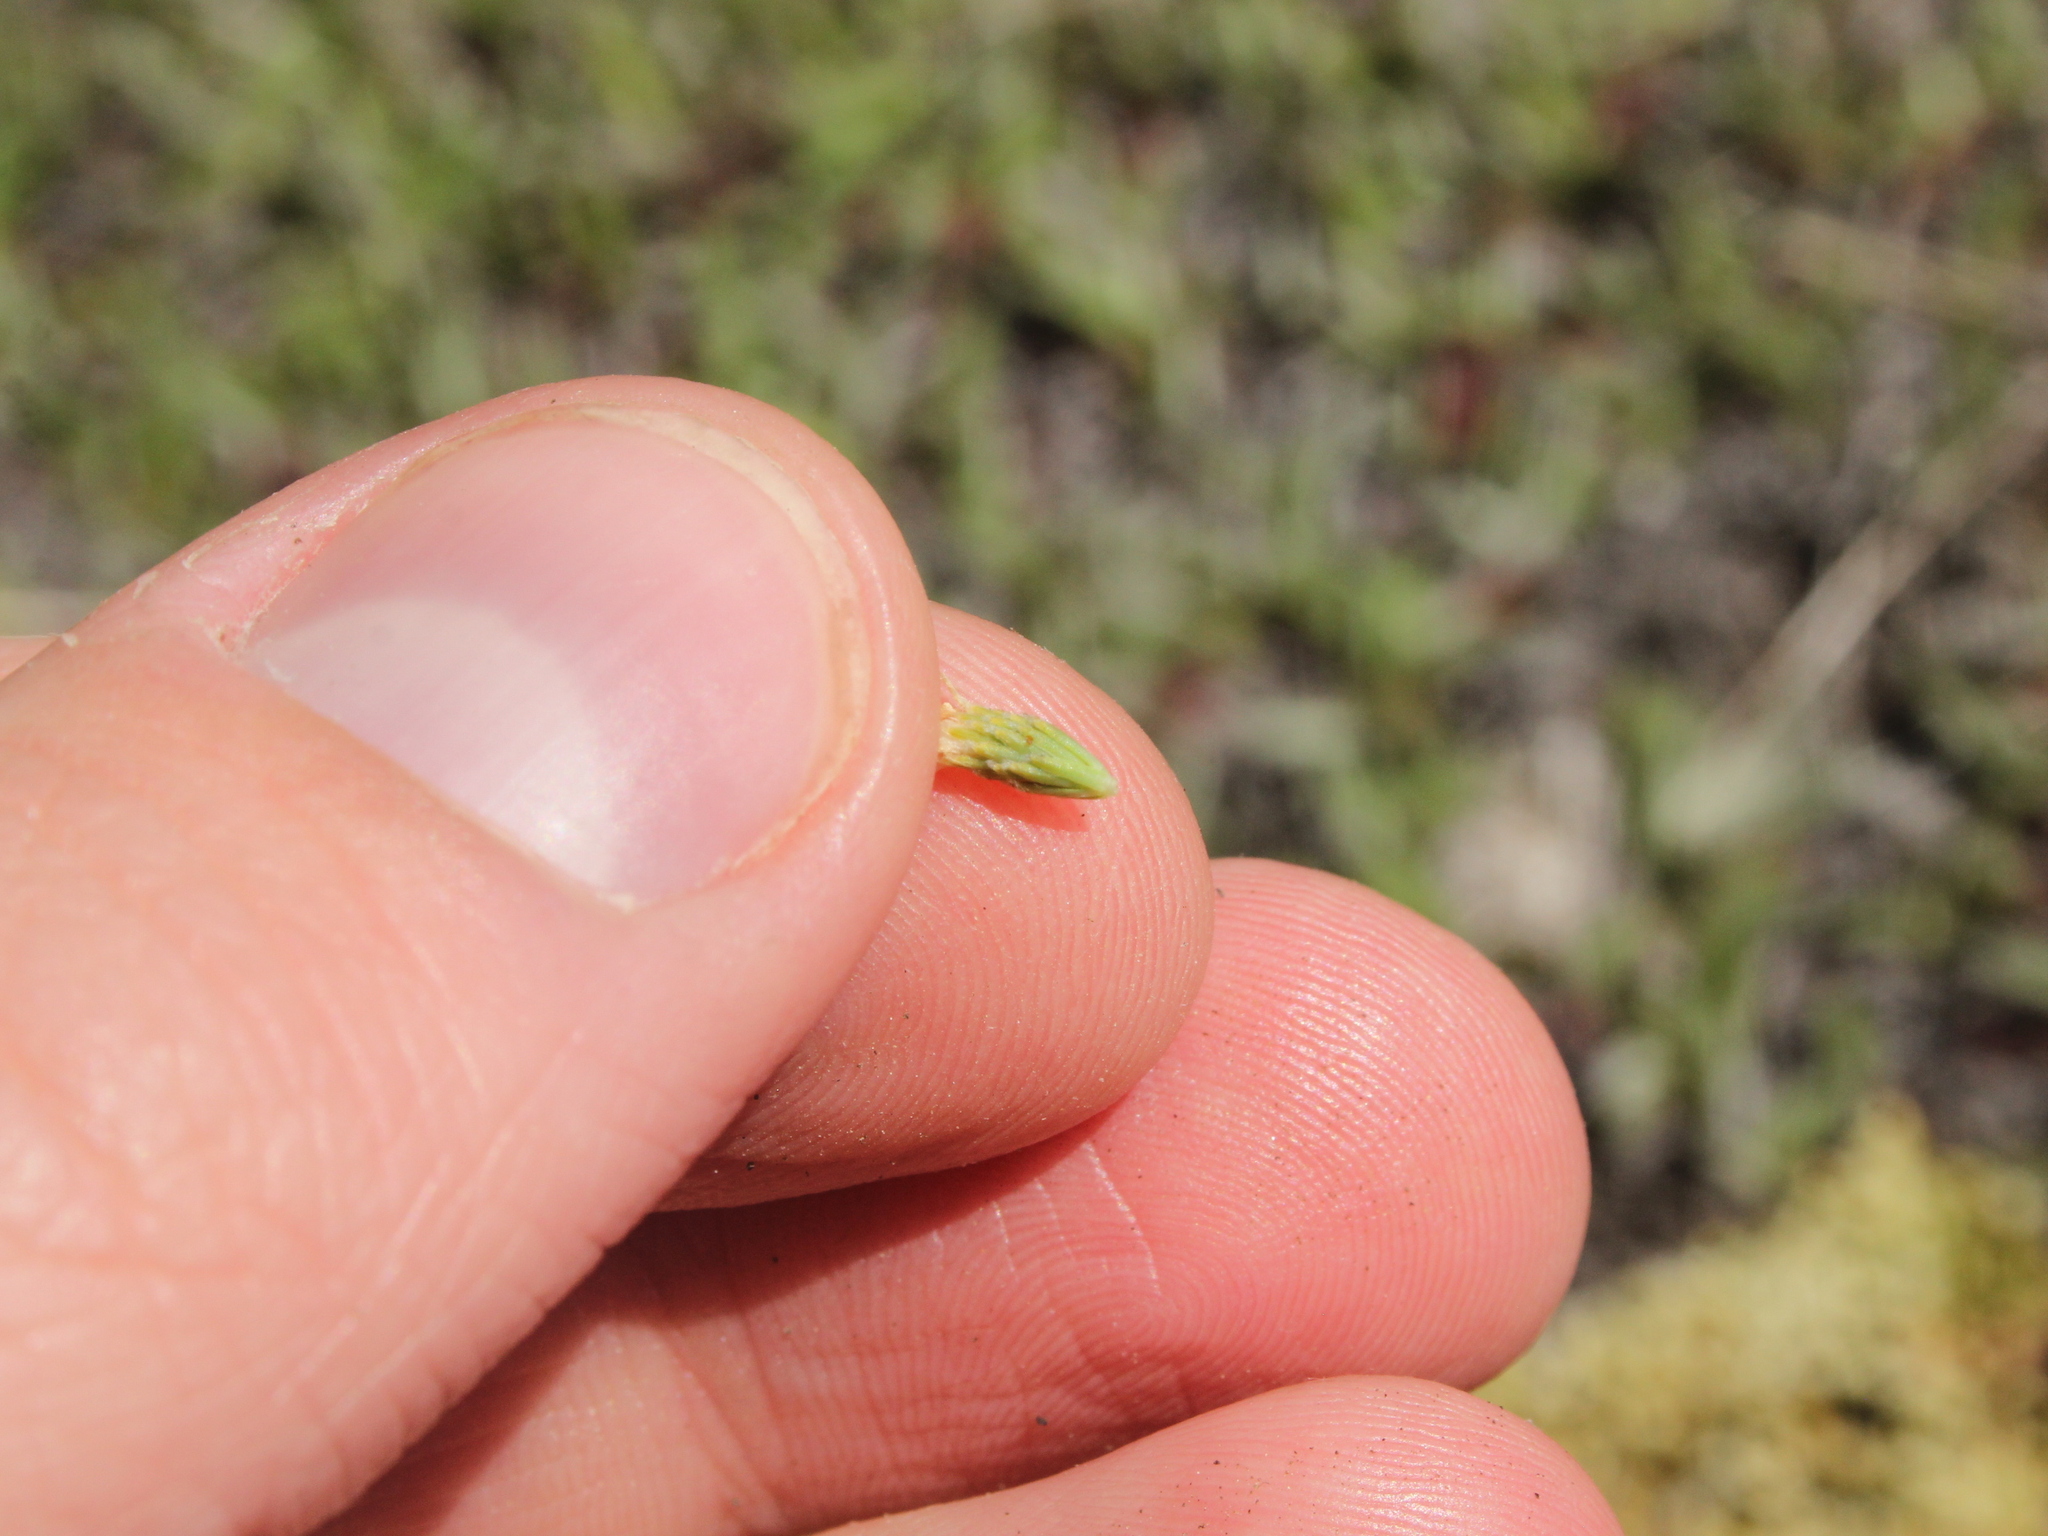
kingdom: Plantae
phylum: Tracheophyta
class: Magnoliopsida
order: Malvales
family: Thymelaeaceae
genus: Kelleria
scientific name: Kelleria dieffenbachii
